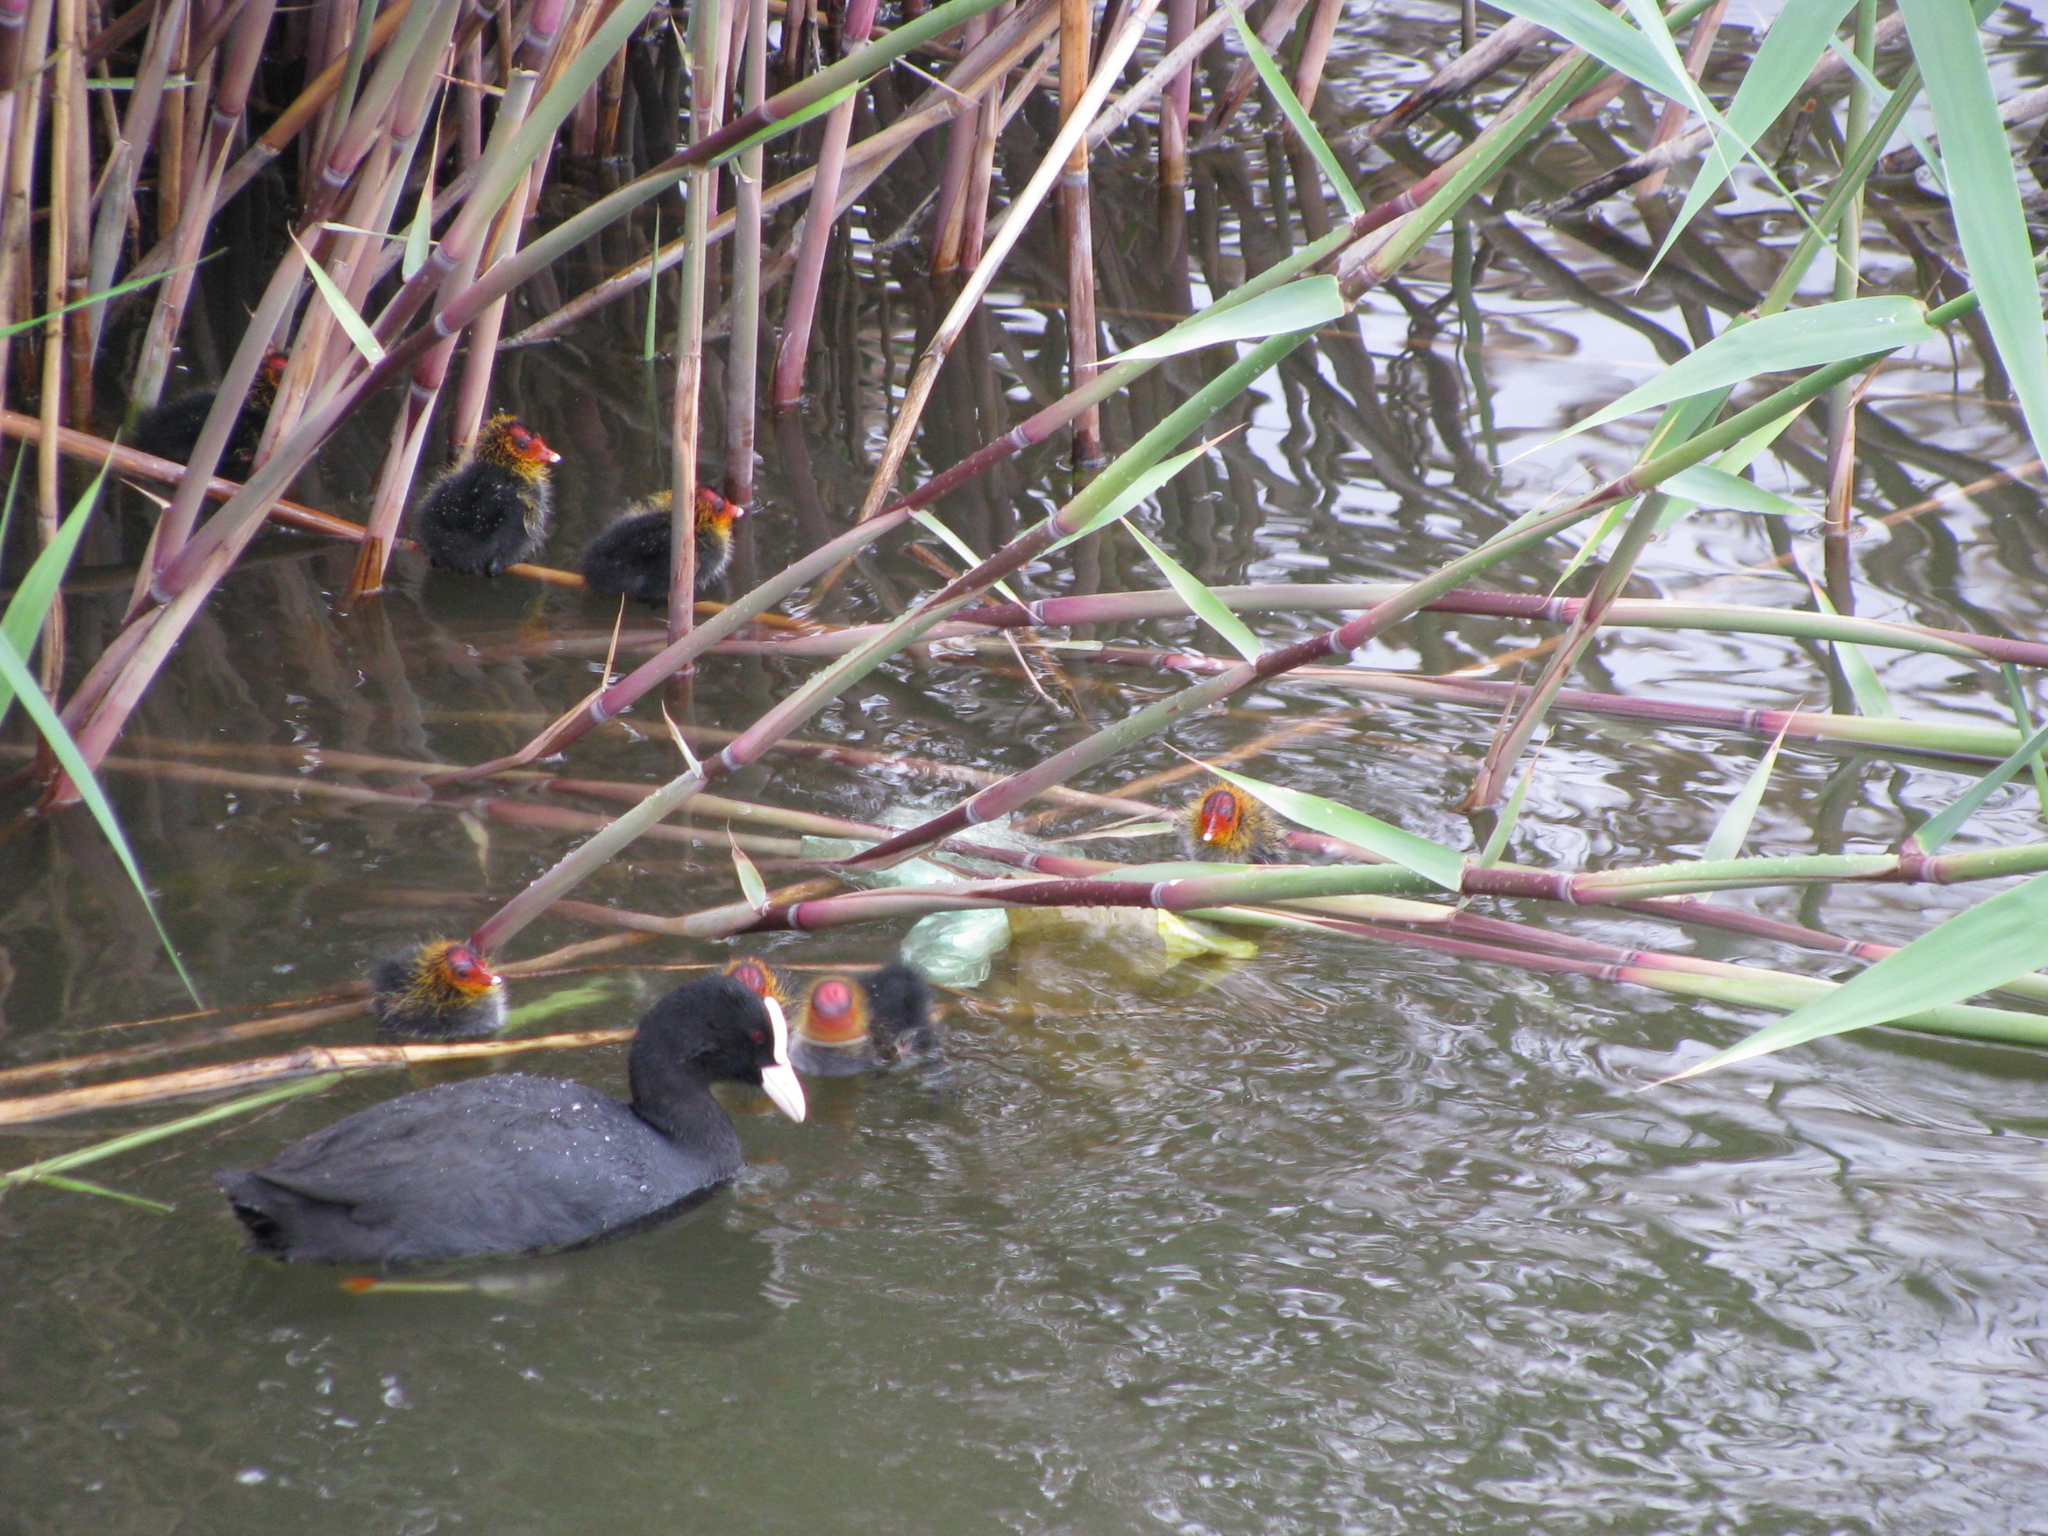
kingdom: Animalia
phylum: Chordata
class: Aves
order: Gruiformes
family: Rallidae
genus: Fulica
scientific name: Fulica atra
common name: Eurasian coot
